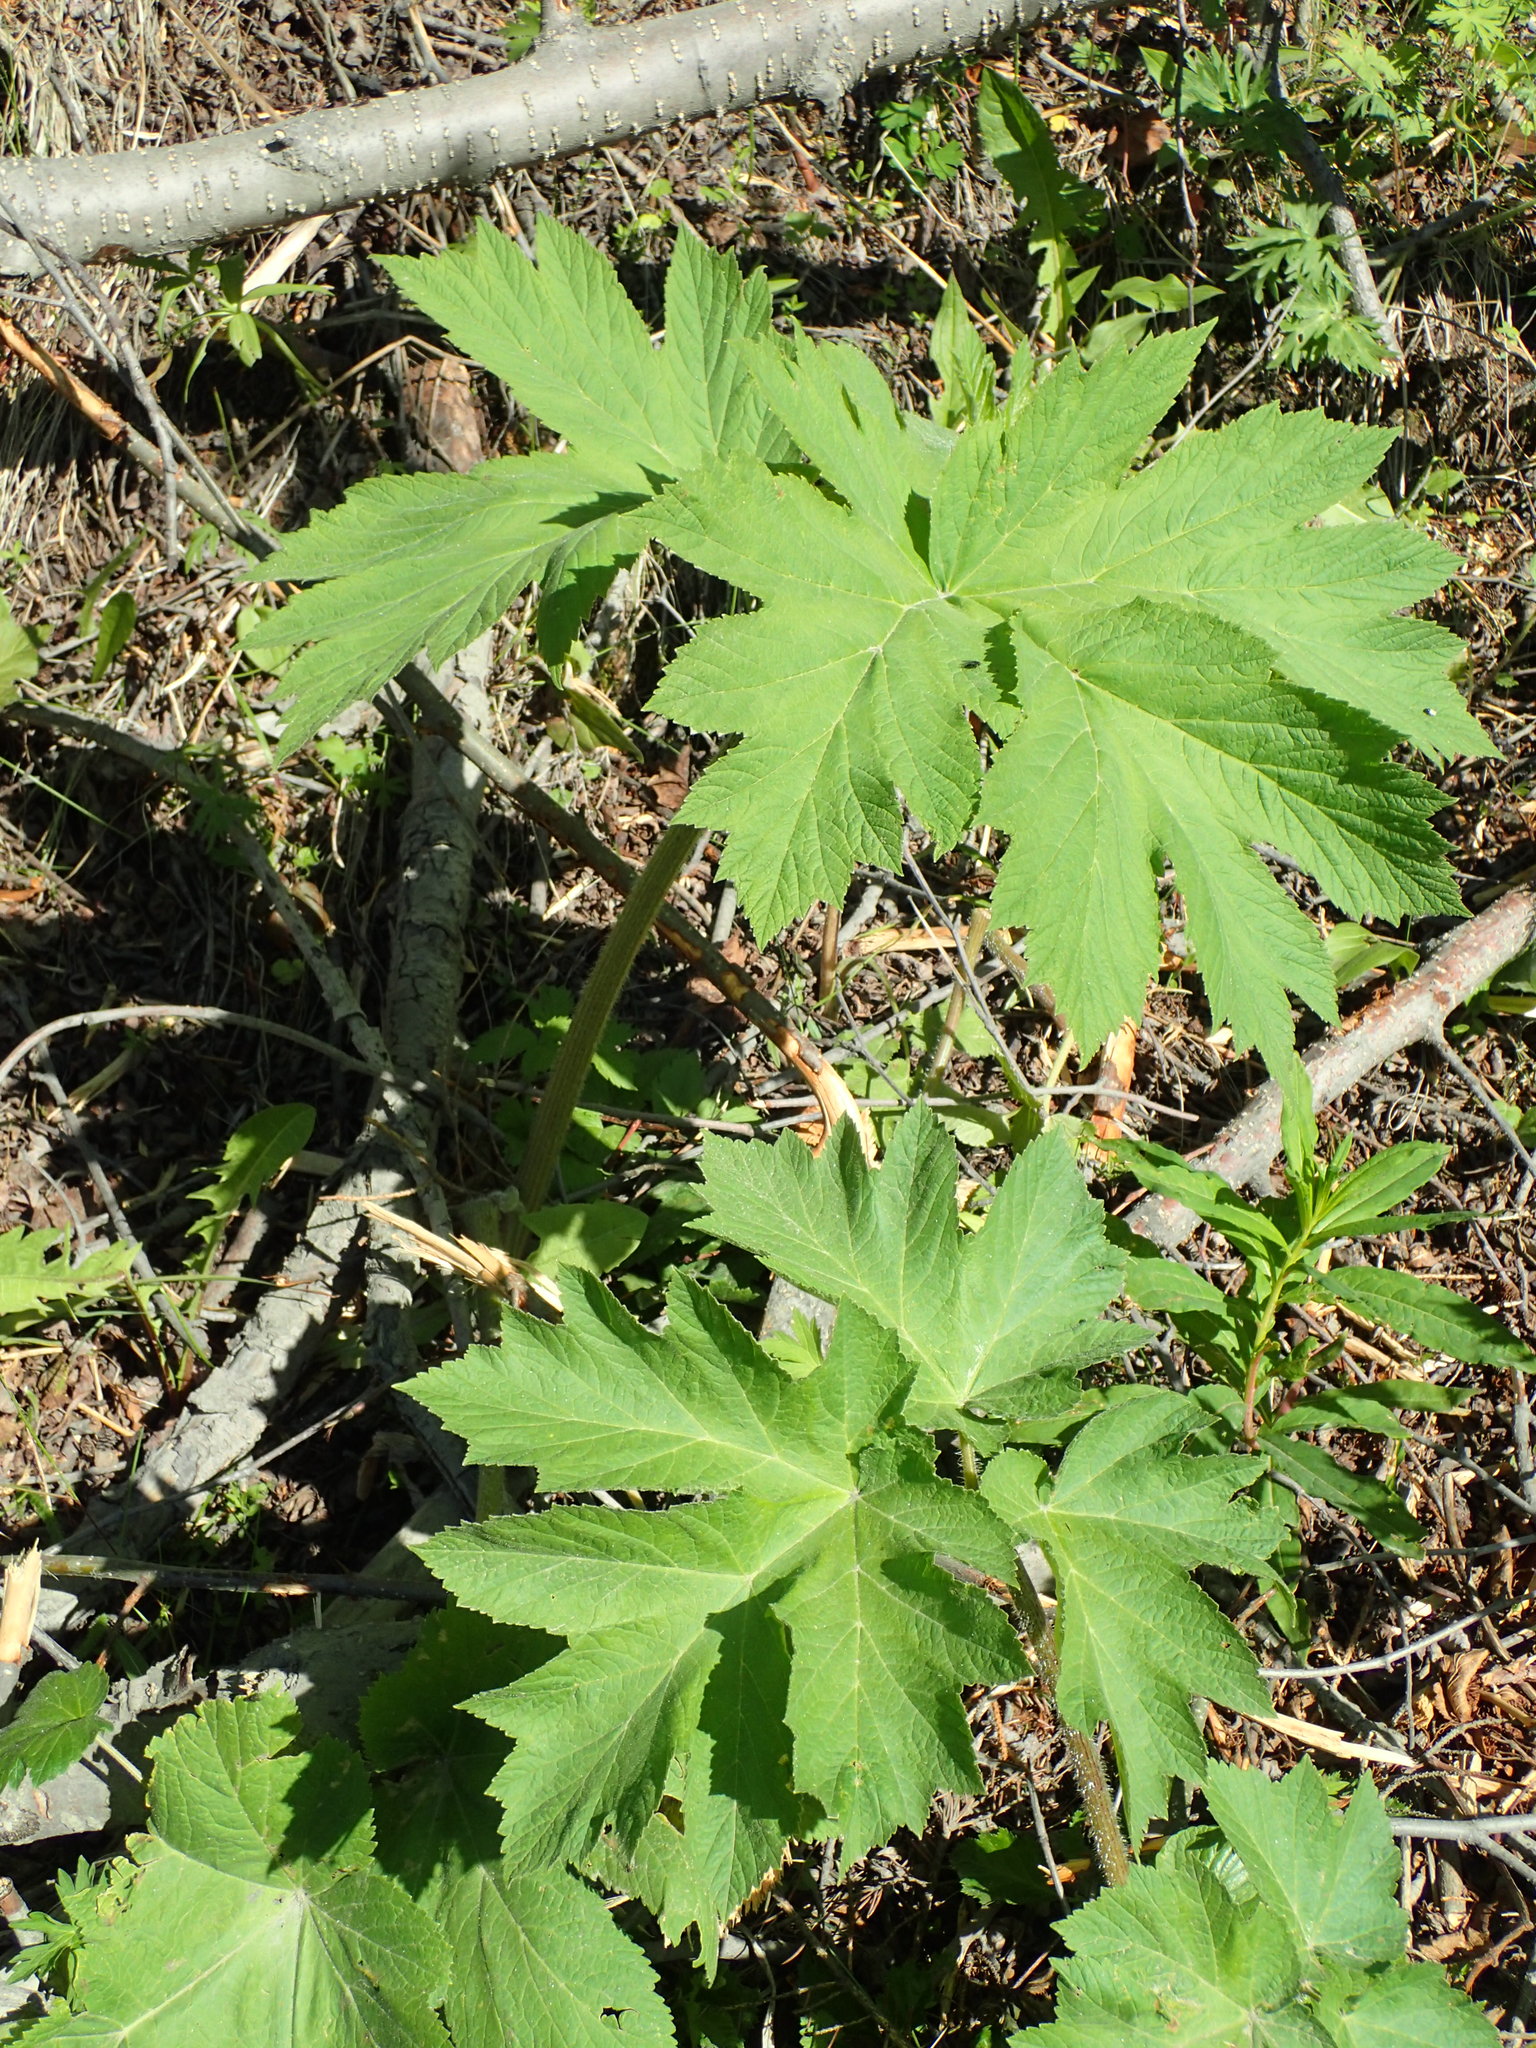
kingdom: Plantae
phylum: Tracheophyta
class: Magnoliopsida
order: Apiales
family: Apiaceae
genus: Heracleum
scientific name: Heracleum maximum
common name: American cow parsnip
